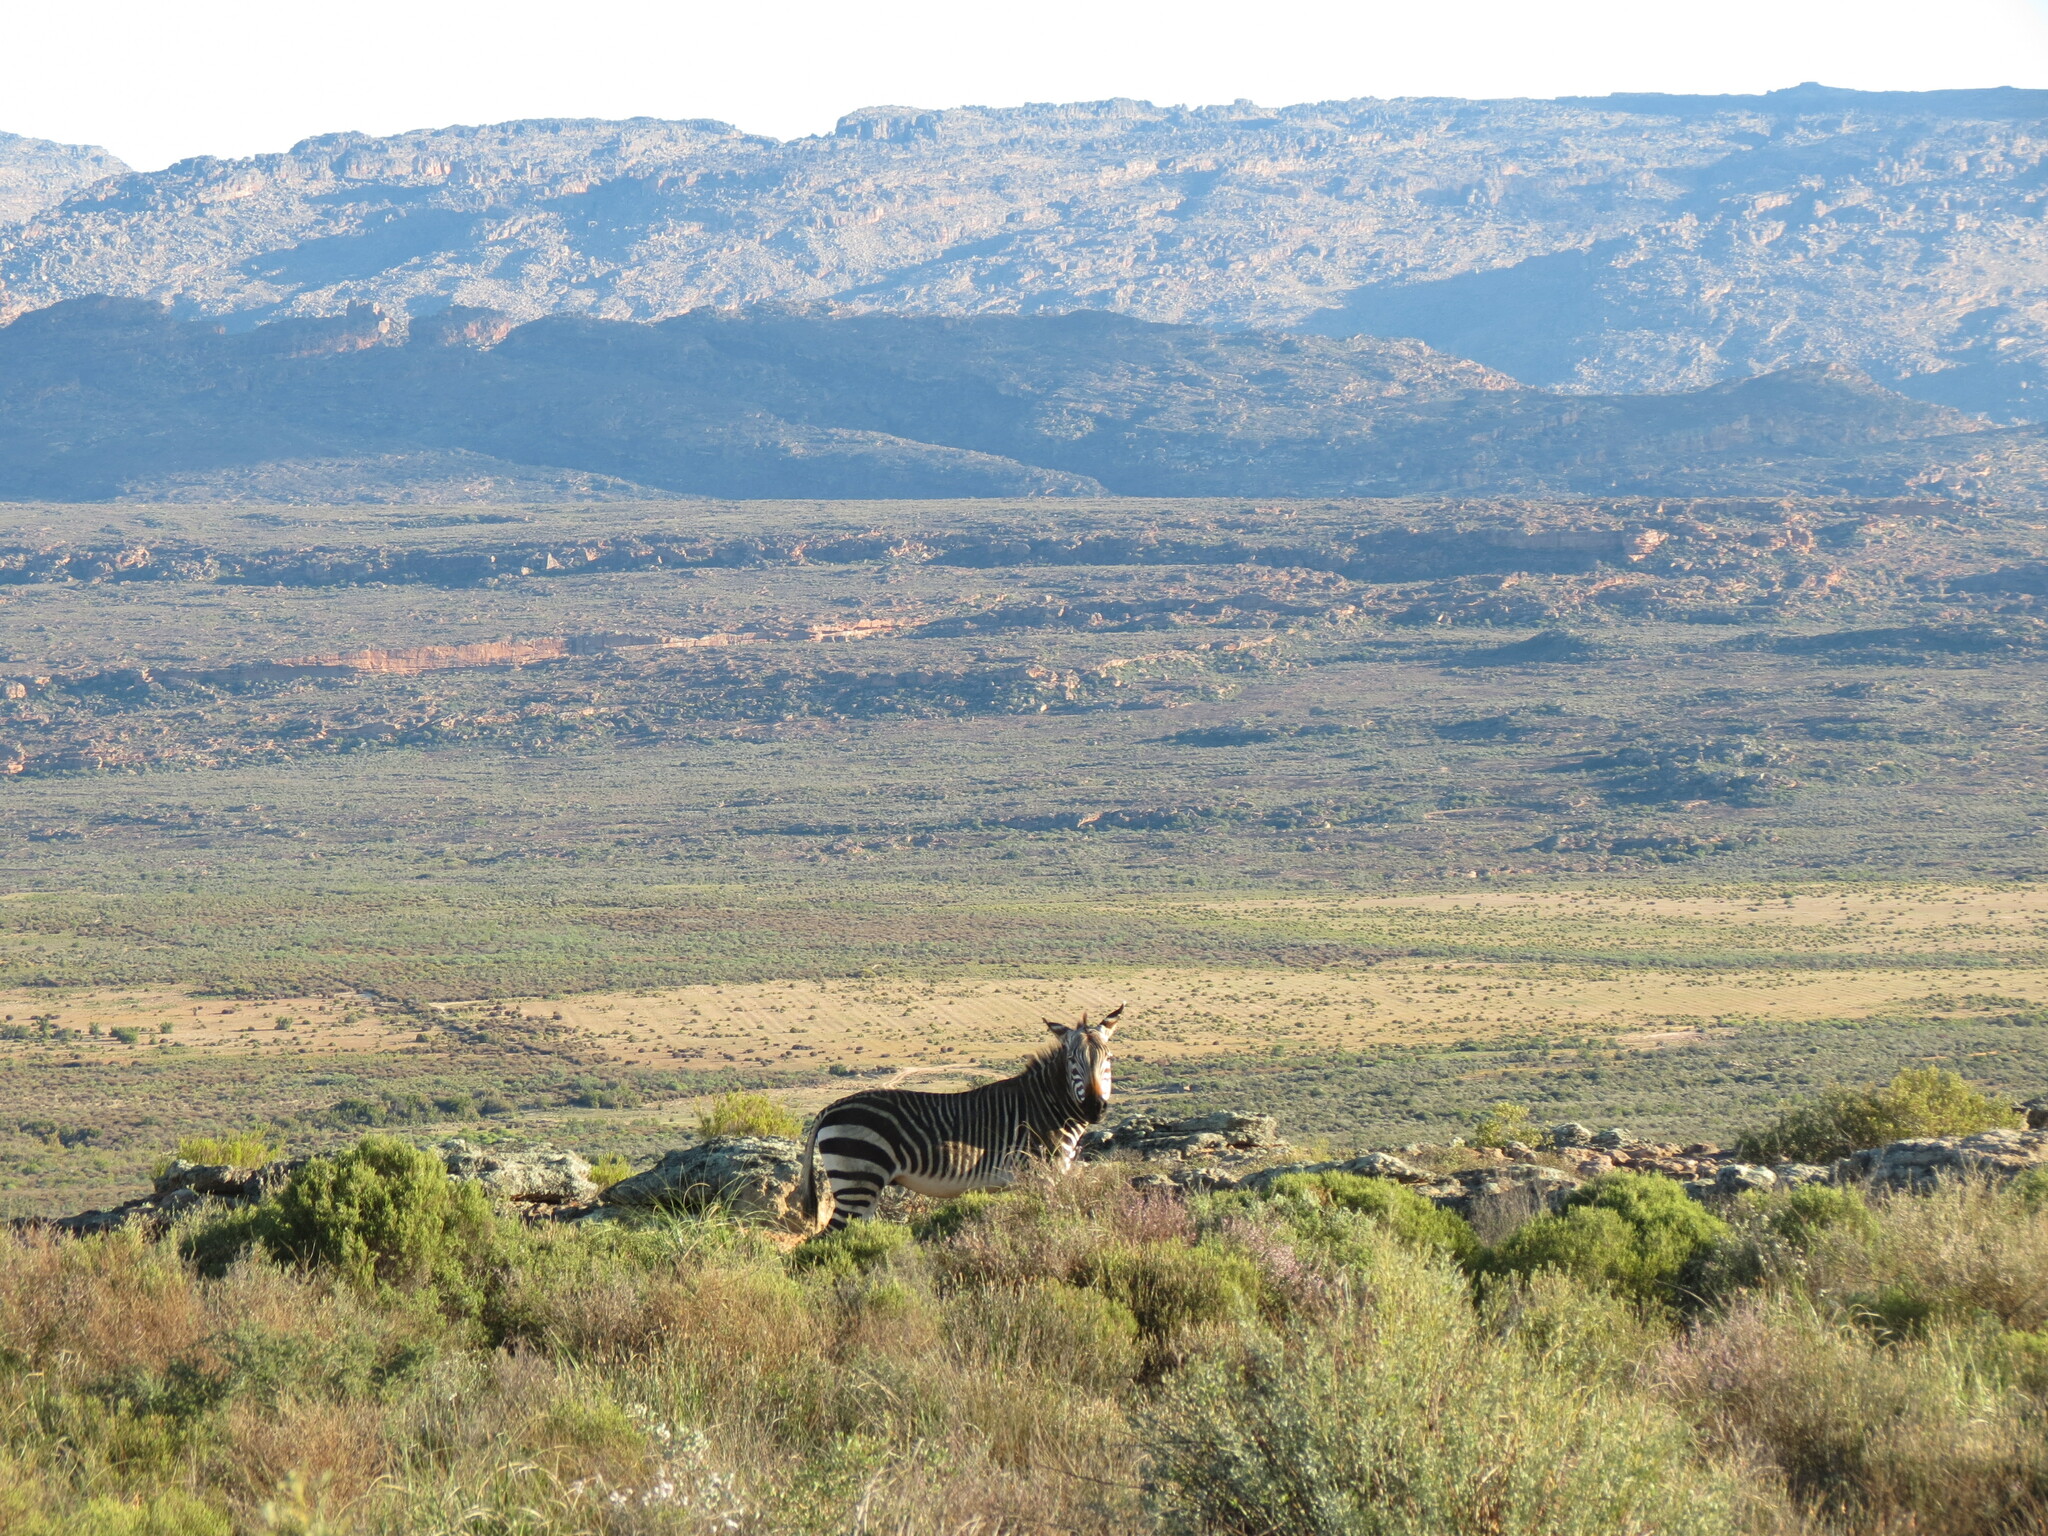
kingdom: Animalia
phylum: Chordata
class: Mammalia
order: Perissodactyla
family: Equidae
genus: Equus
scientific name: Equus zebra
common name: Mountain zebra
